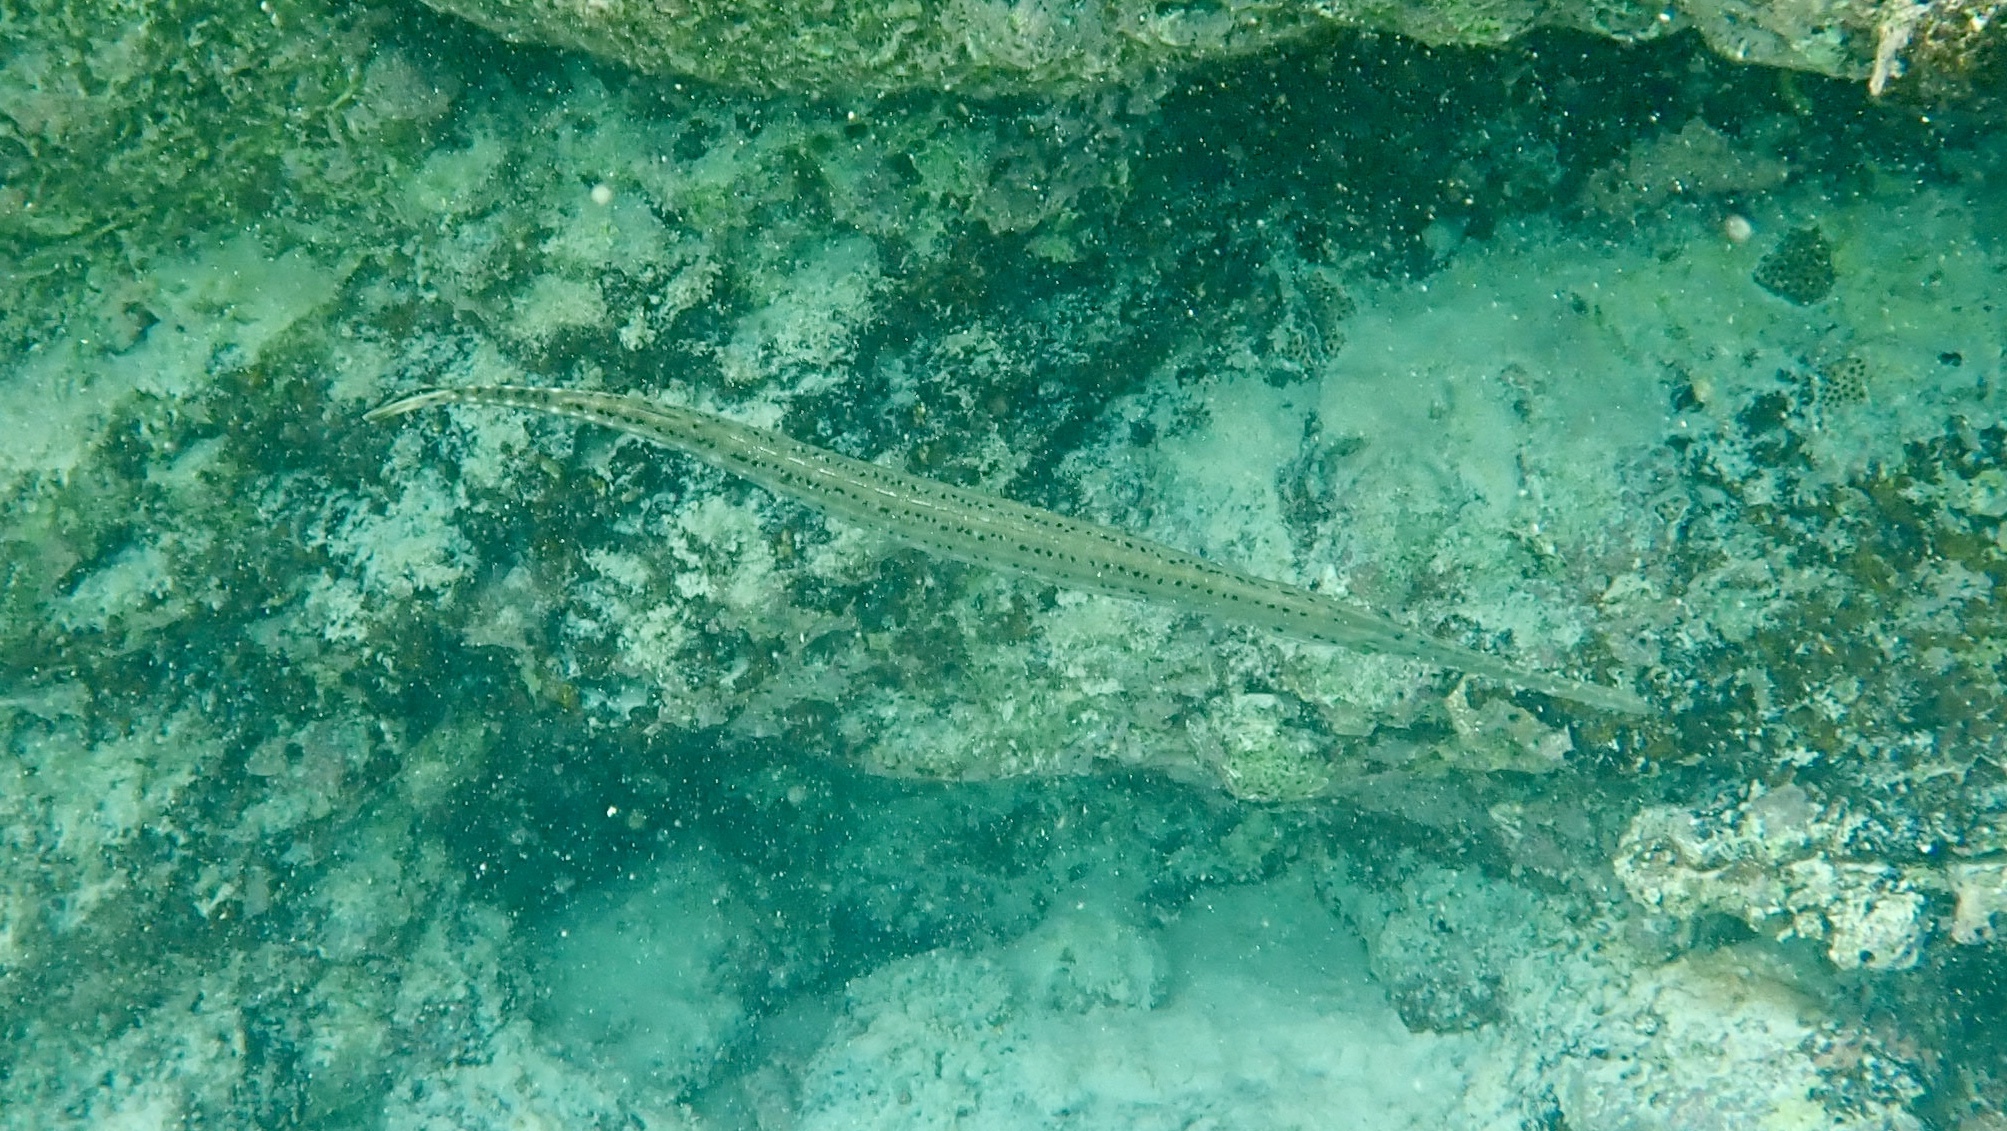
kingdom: Animalia
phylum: Chordata
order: Syngnathiformes
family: Aulostomidae
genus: Aulostomus
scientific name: Aulostomus maculatus
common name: West atlantic trumpetfish
